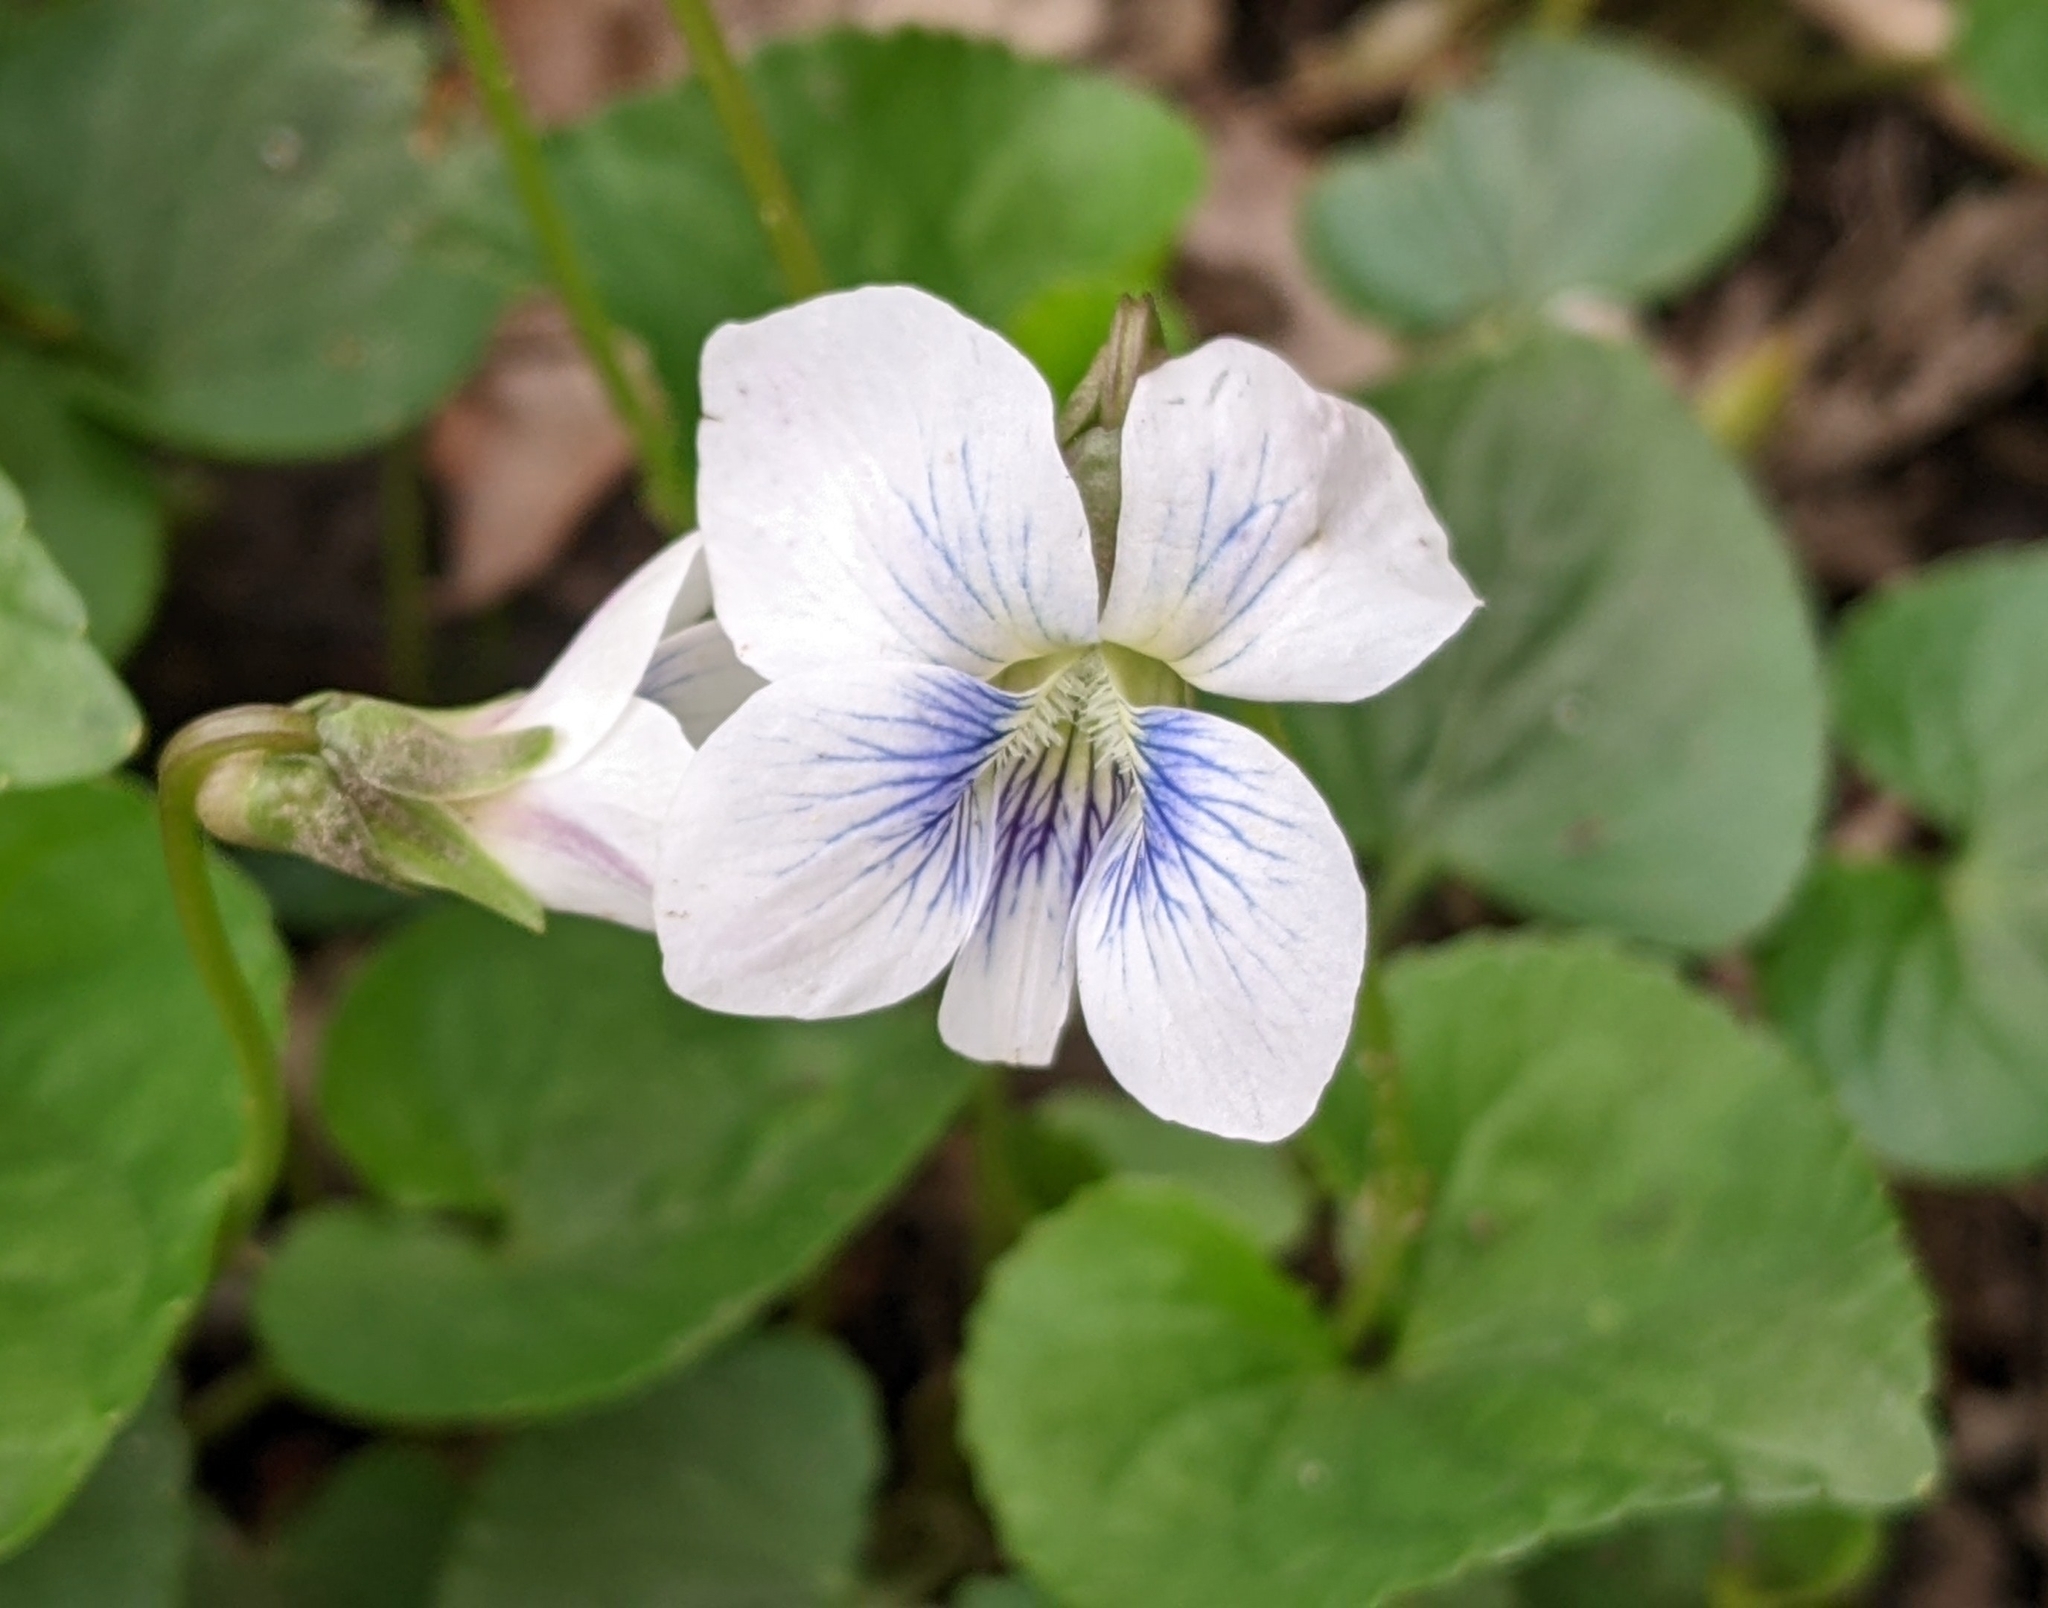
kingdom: Plantae
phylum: Tracheophyta
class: Magnoliopsida
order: Malpighiales
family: Violaceae
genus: Viola
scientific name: Viola sororia
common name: Dooryard violet
